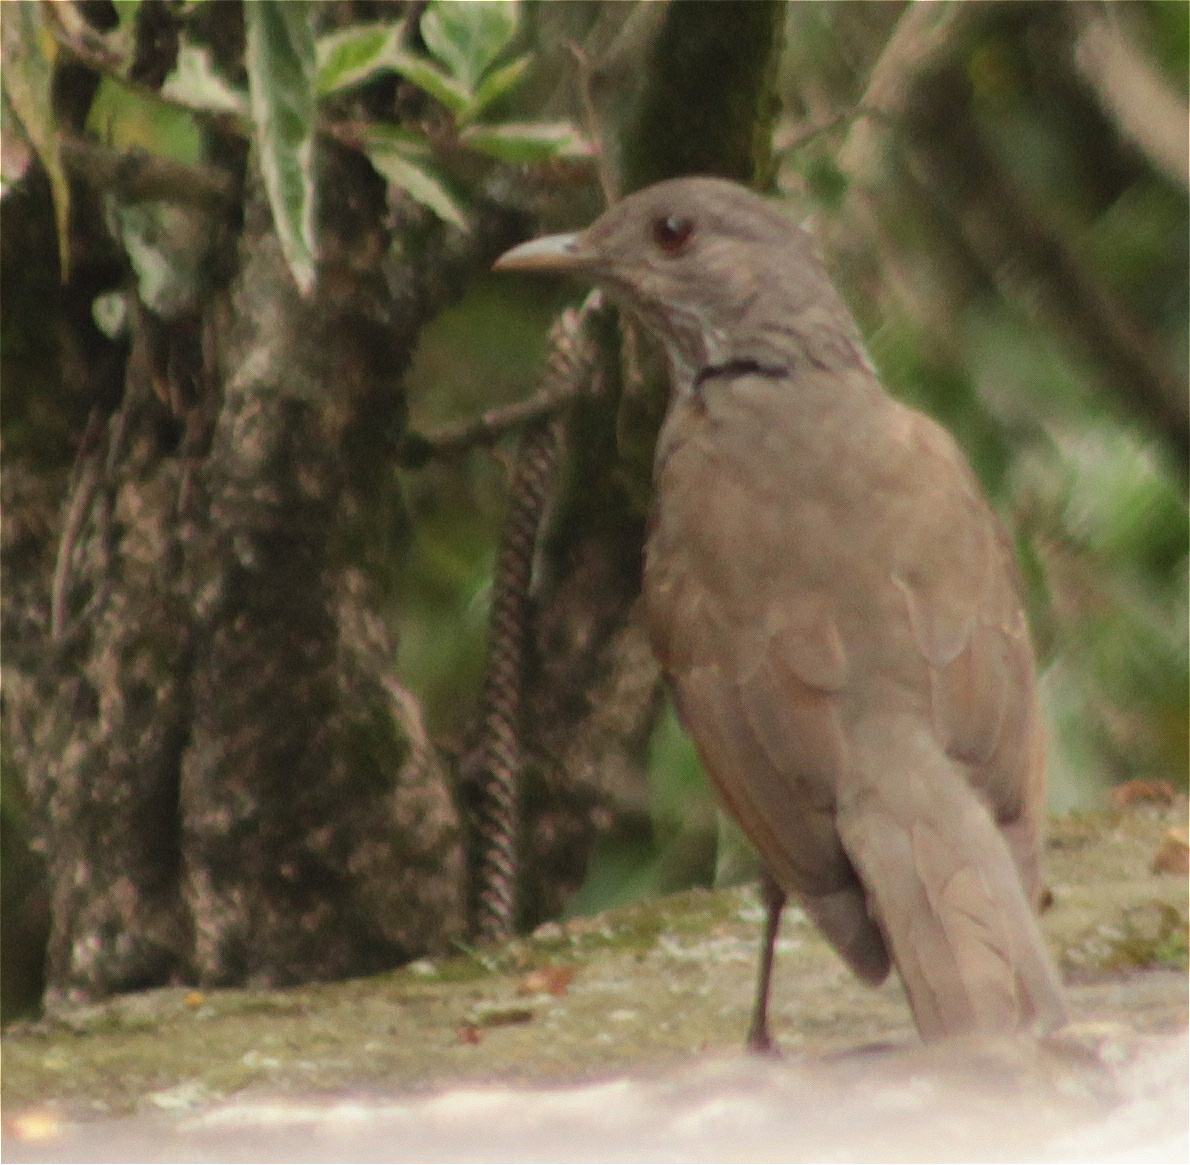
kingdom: Animalia
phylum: Chordata
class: Aves
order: Passeriformes
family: Turdidae
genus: Turdus
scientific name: Turdus leucomelas
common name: Pale-breasted thrush
